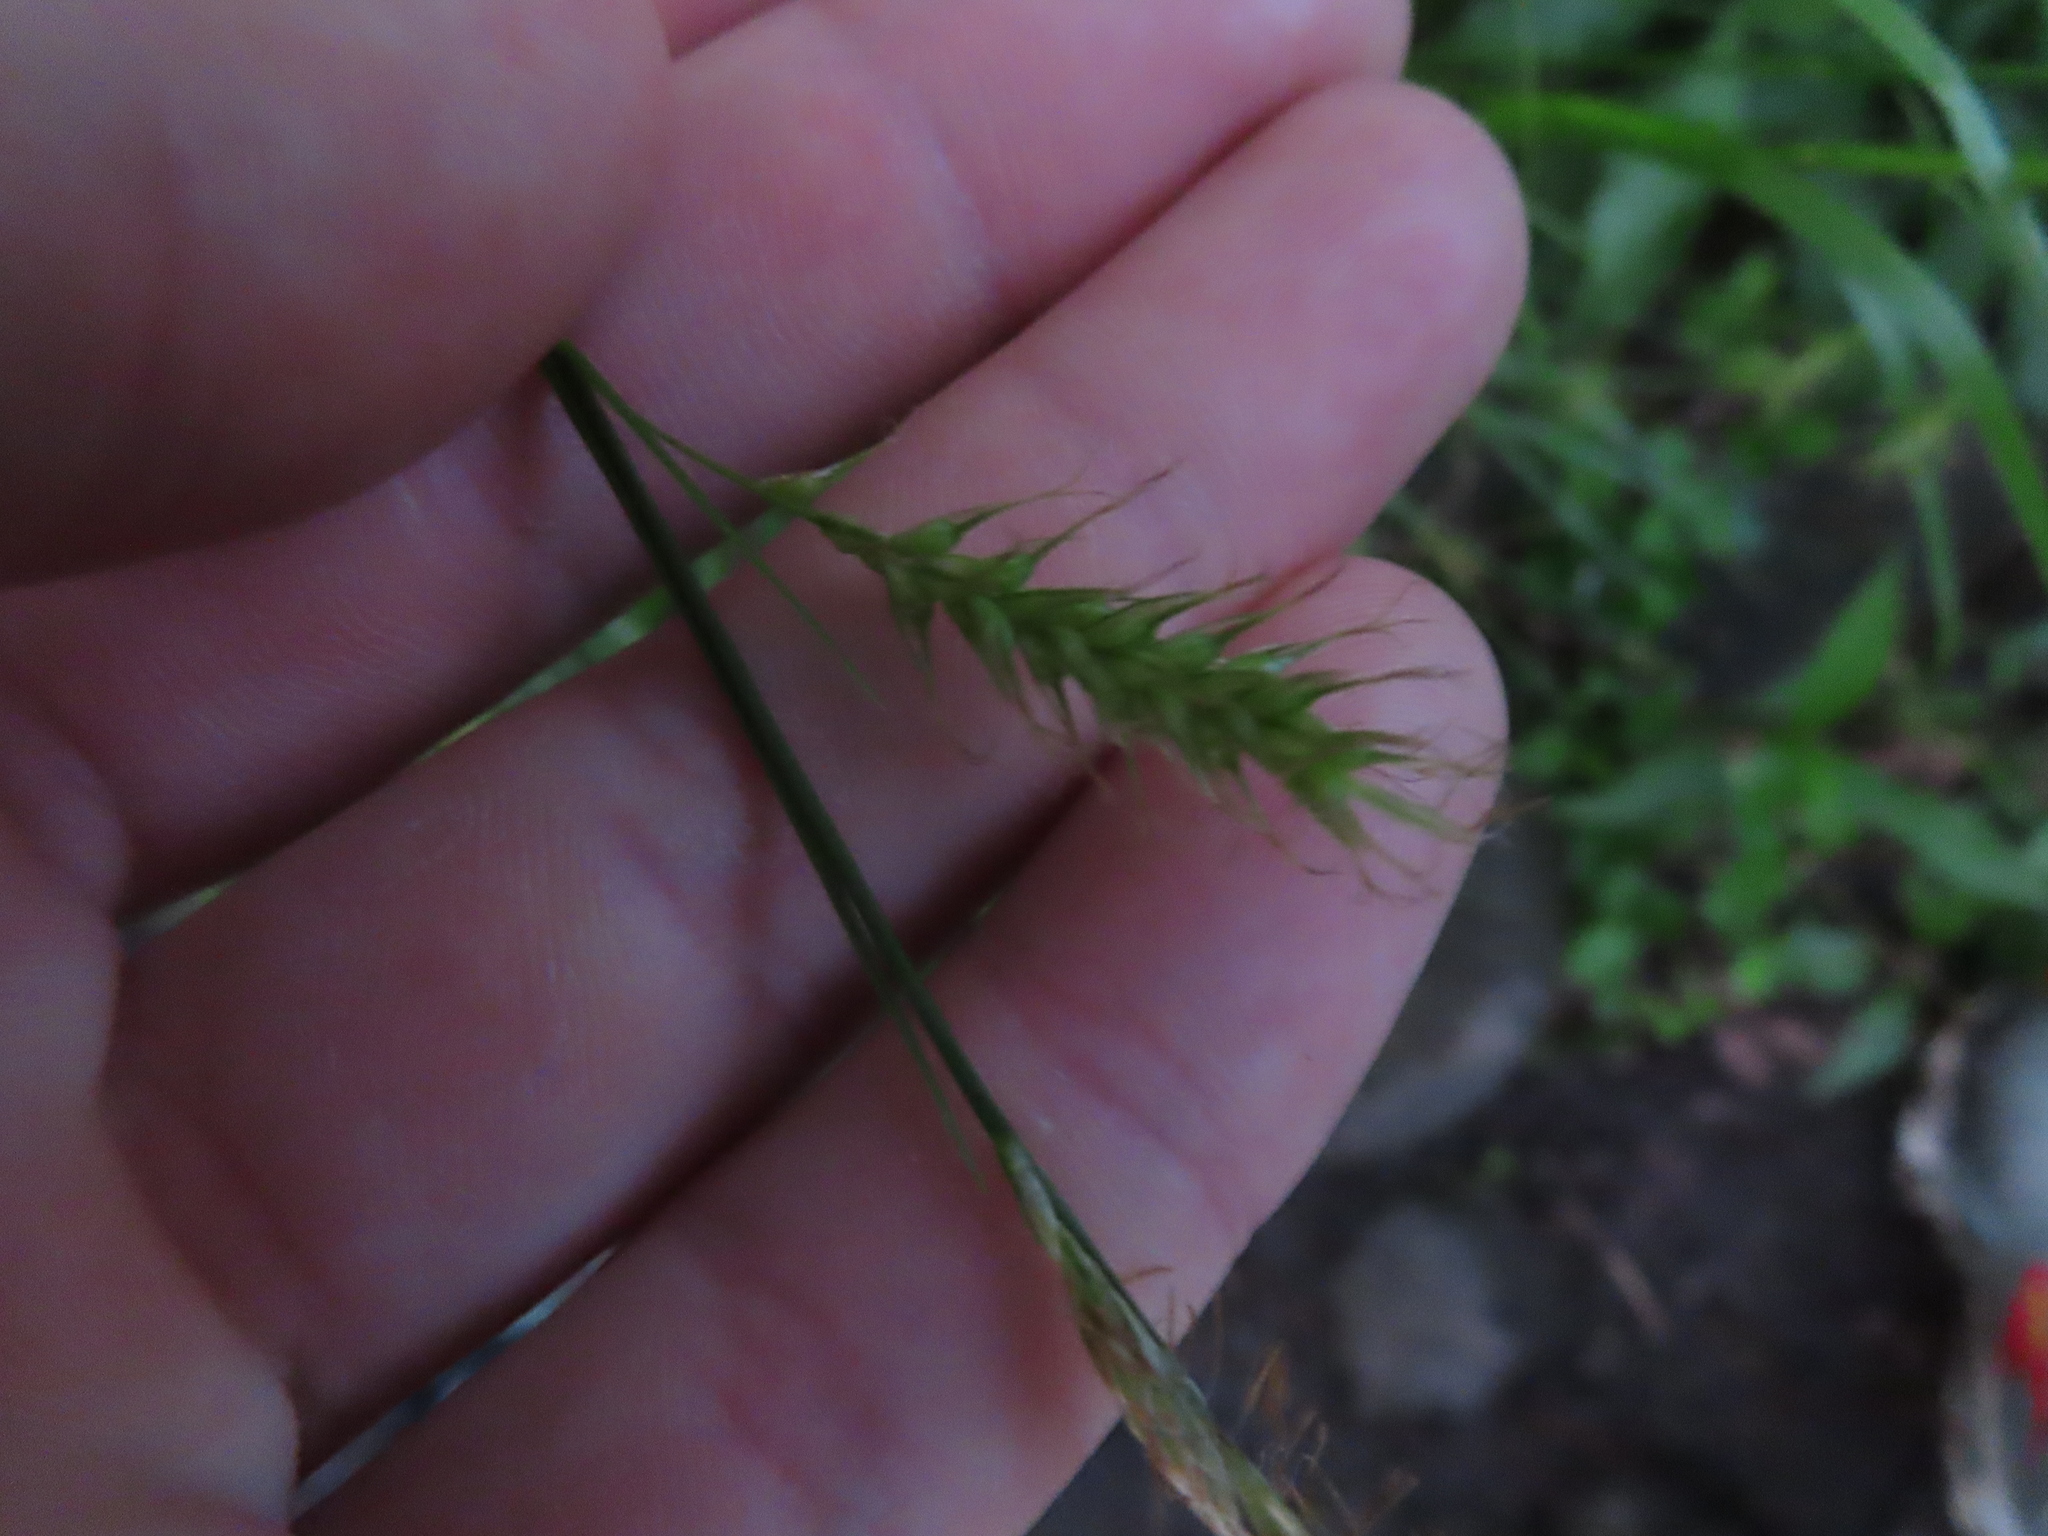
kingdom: Plantae
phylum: Tracheophyta
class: Liliopsida
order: Poales
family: Cyperaceae
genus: Carex
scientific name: Carex sprengelii
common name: Long-beaked sedge
